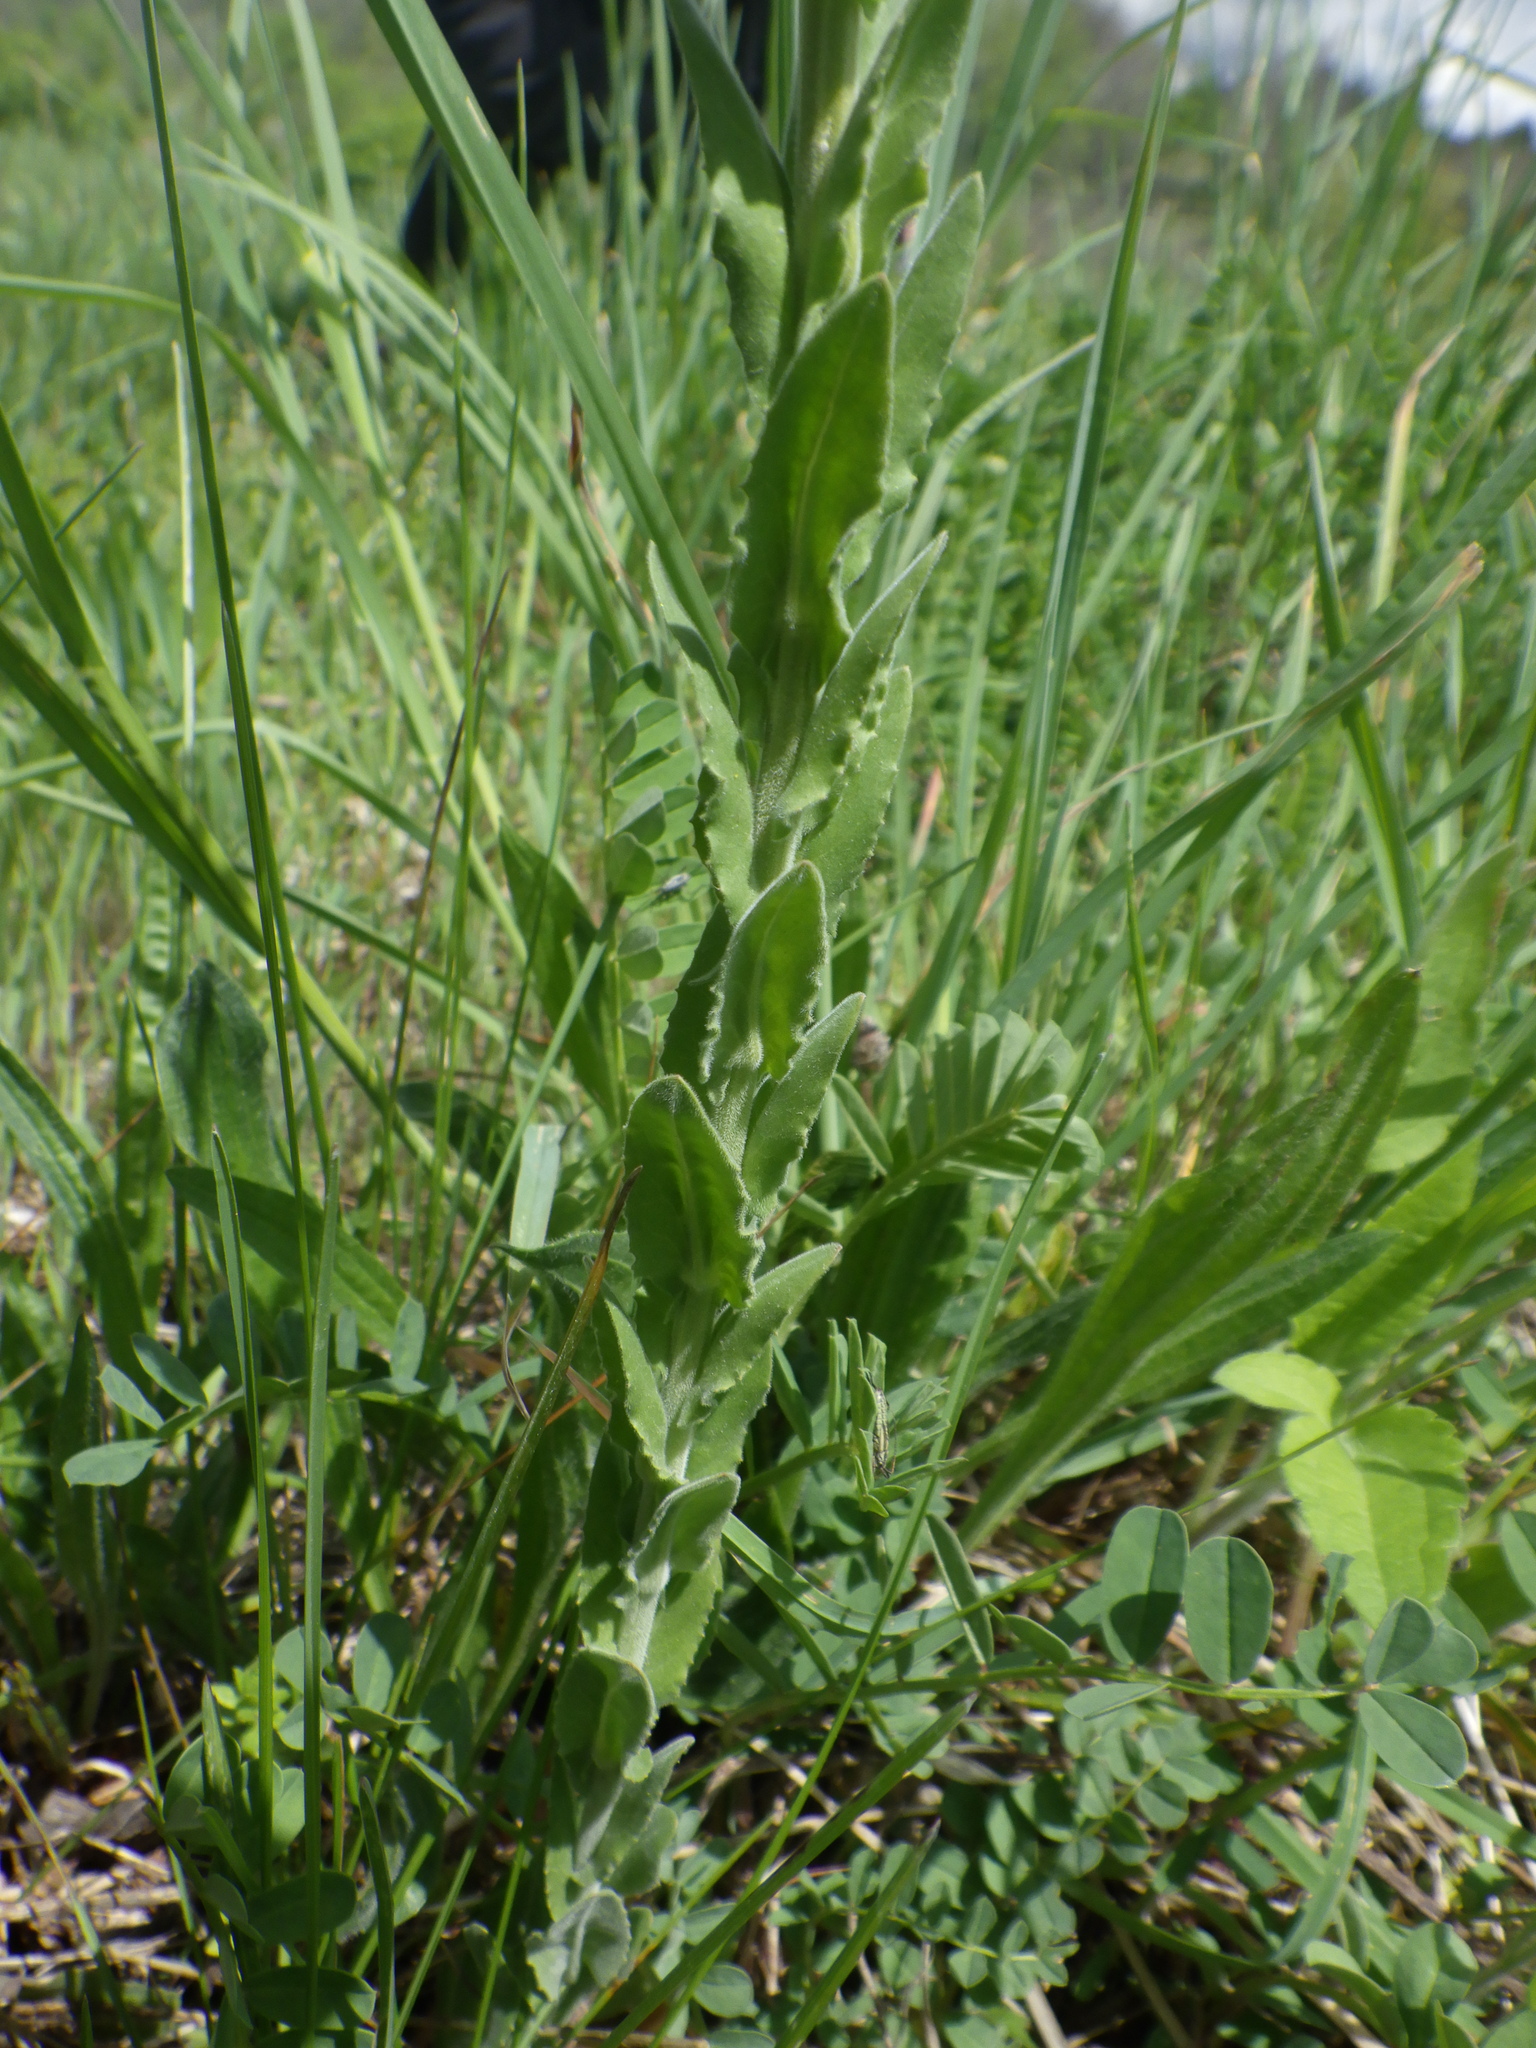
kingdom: Plantae
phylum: Tracheophyta
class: Magnoliopsida
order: Brassicales
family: Brassicaceae
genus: Lepidium
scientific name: Lepidium campestre
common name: Field pepperwort
